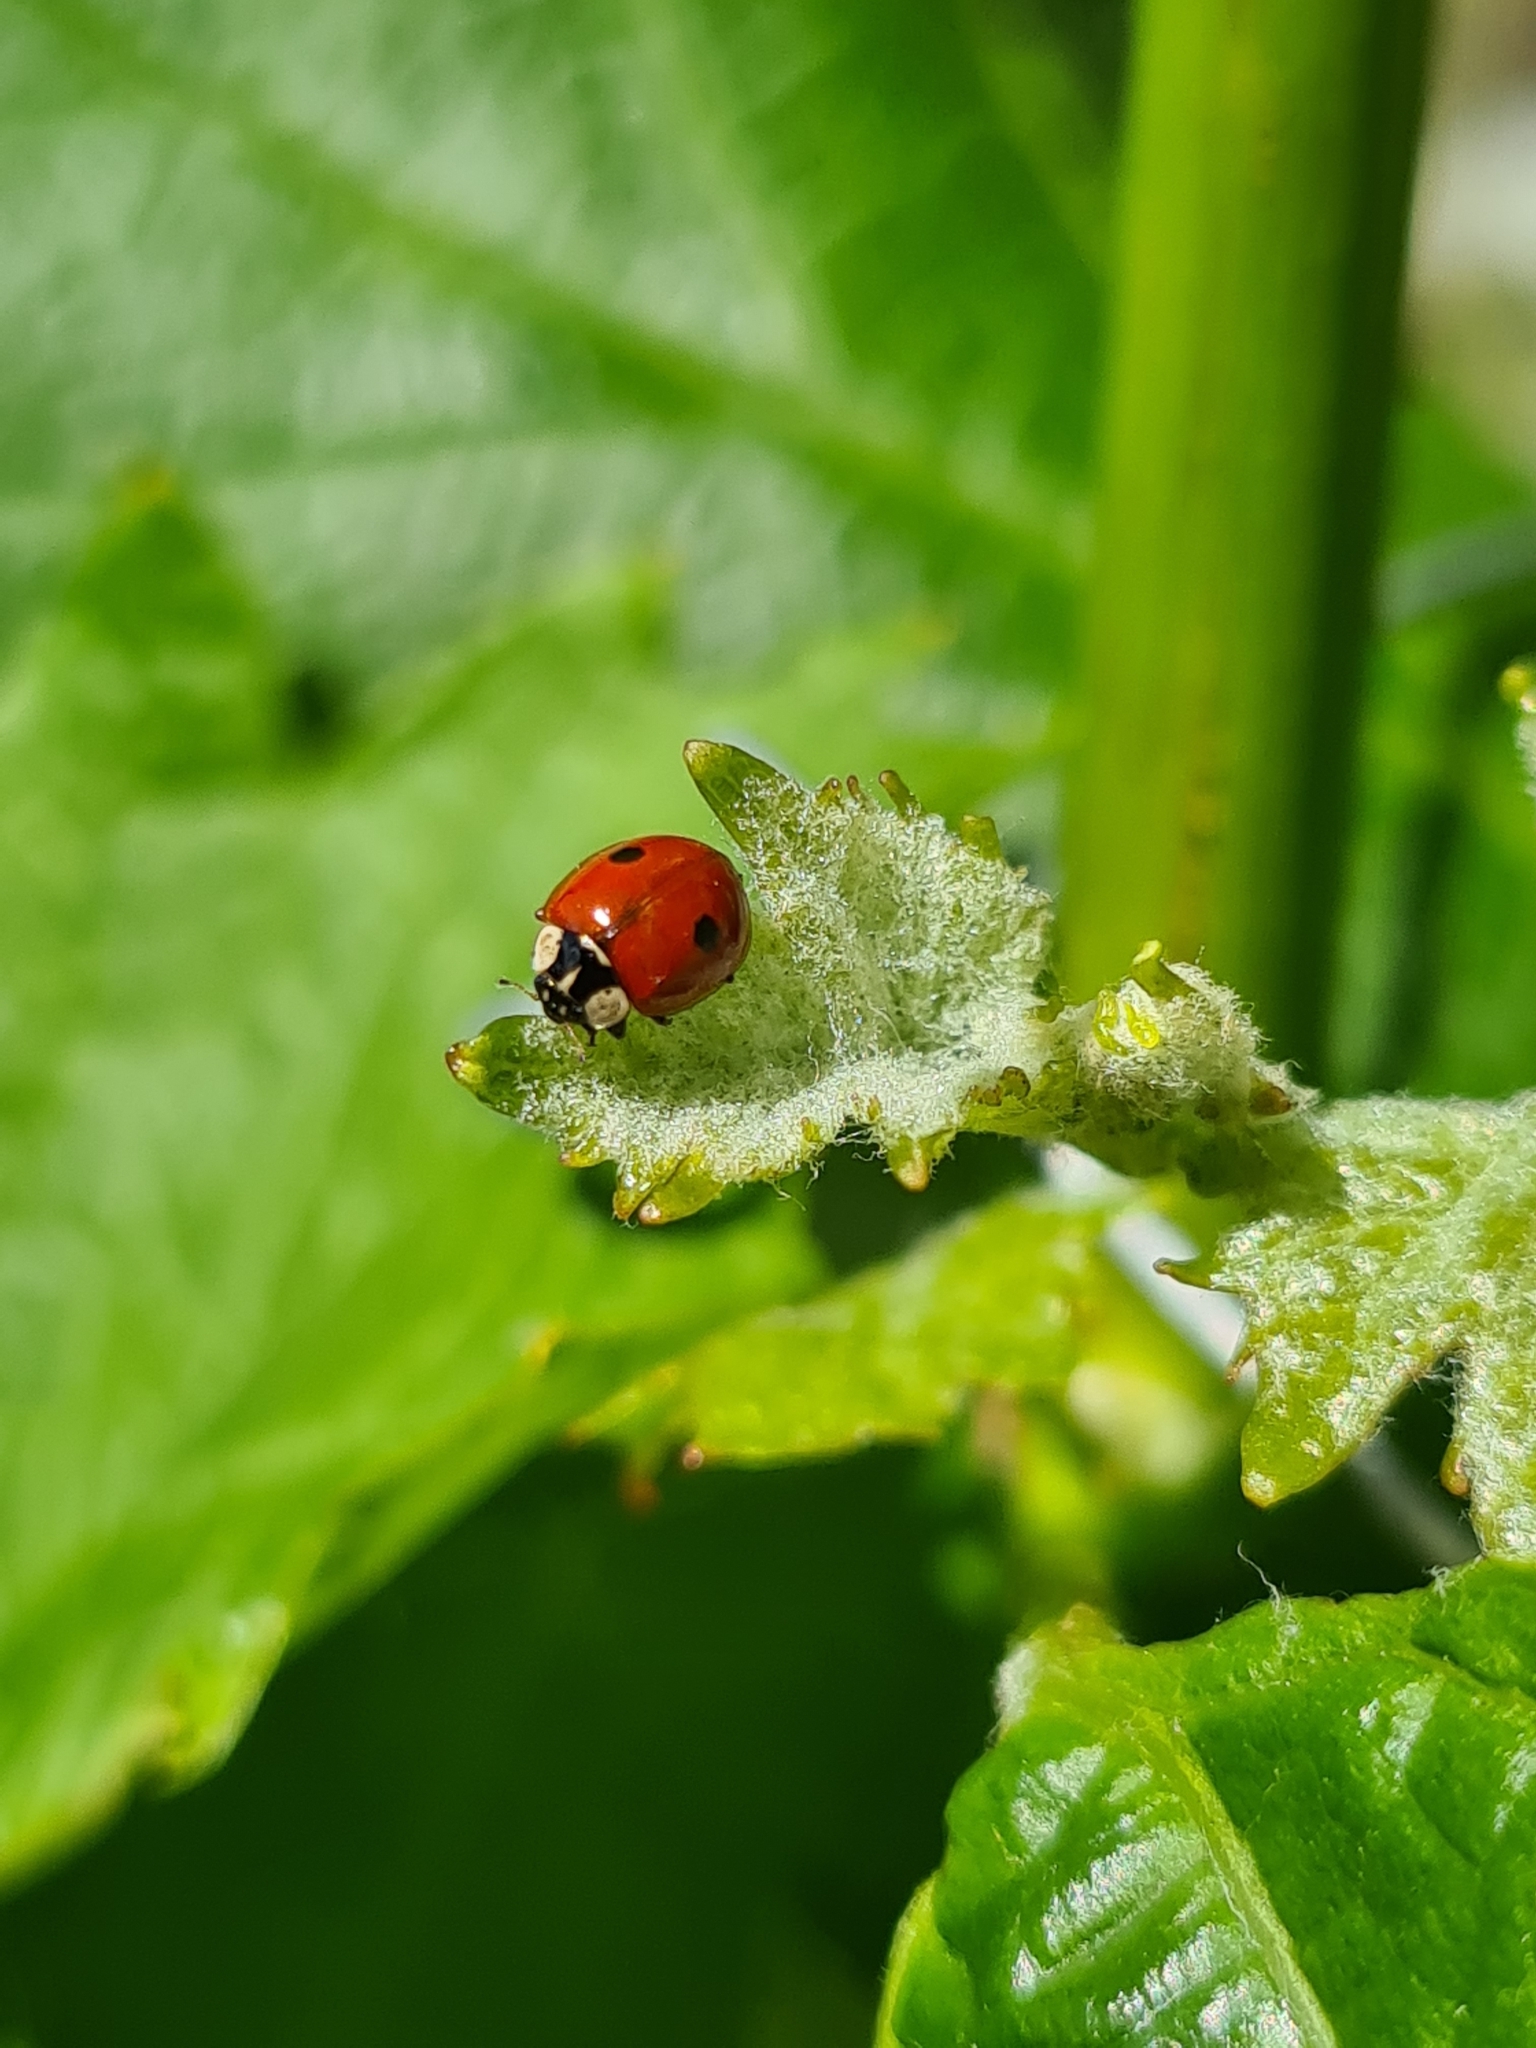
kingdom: Animalia
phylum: Arthropoda
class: Insecta
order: Coleoptera
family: Coccinellidae
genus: Adalia
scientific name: Adalia bipunctata
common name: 2-spot ladybird
